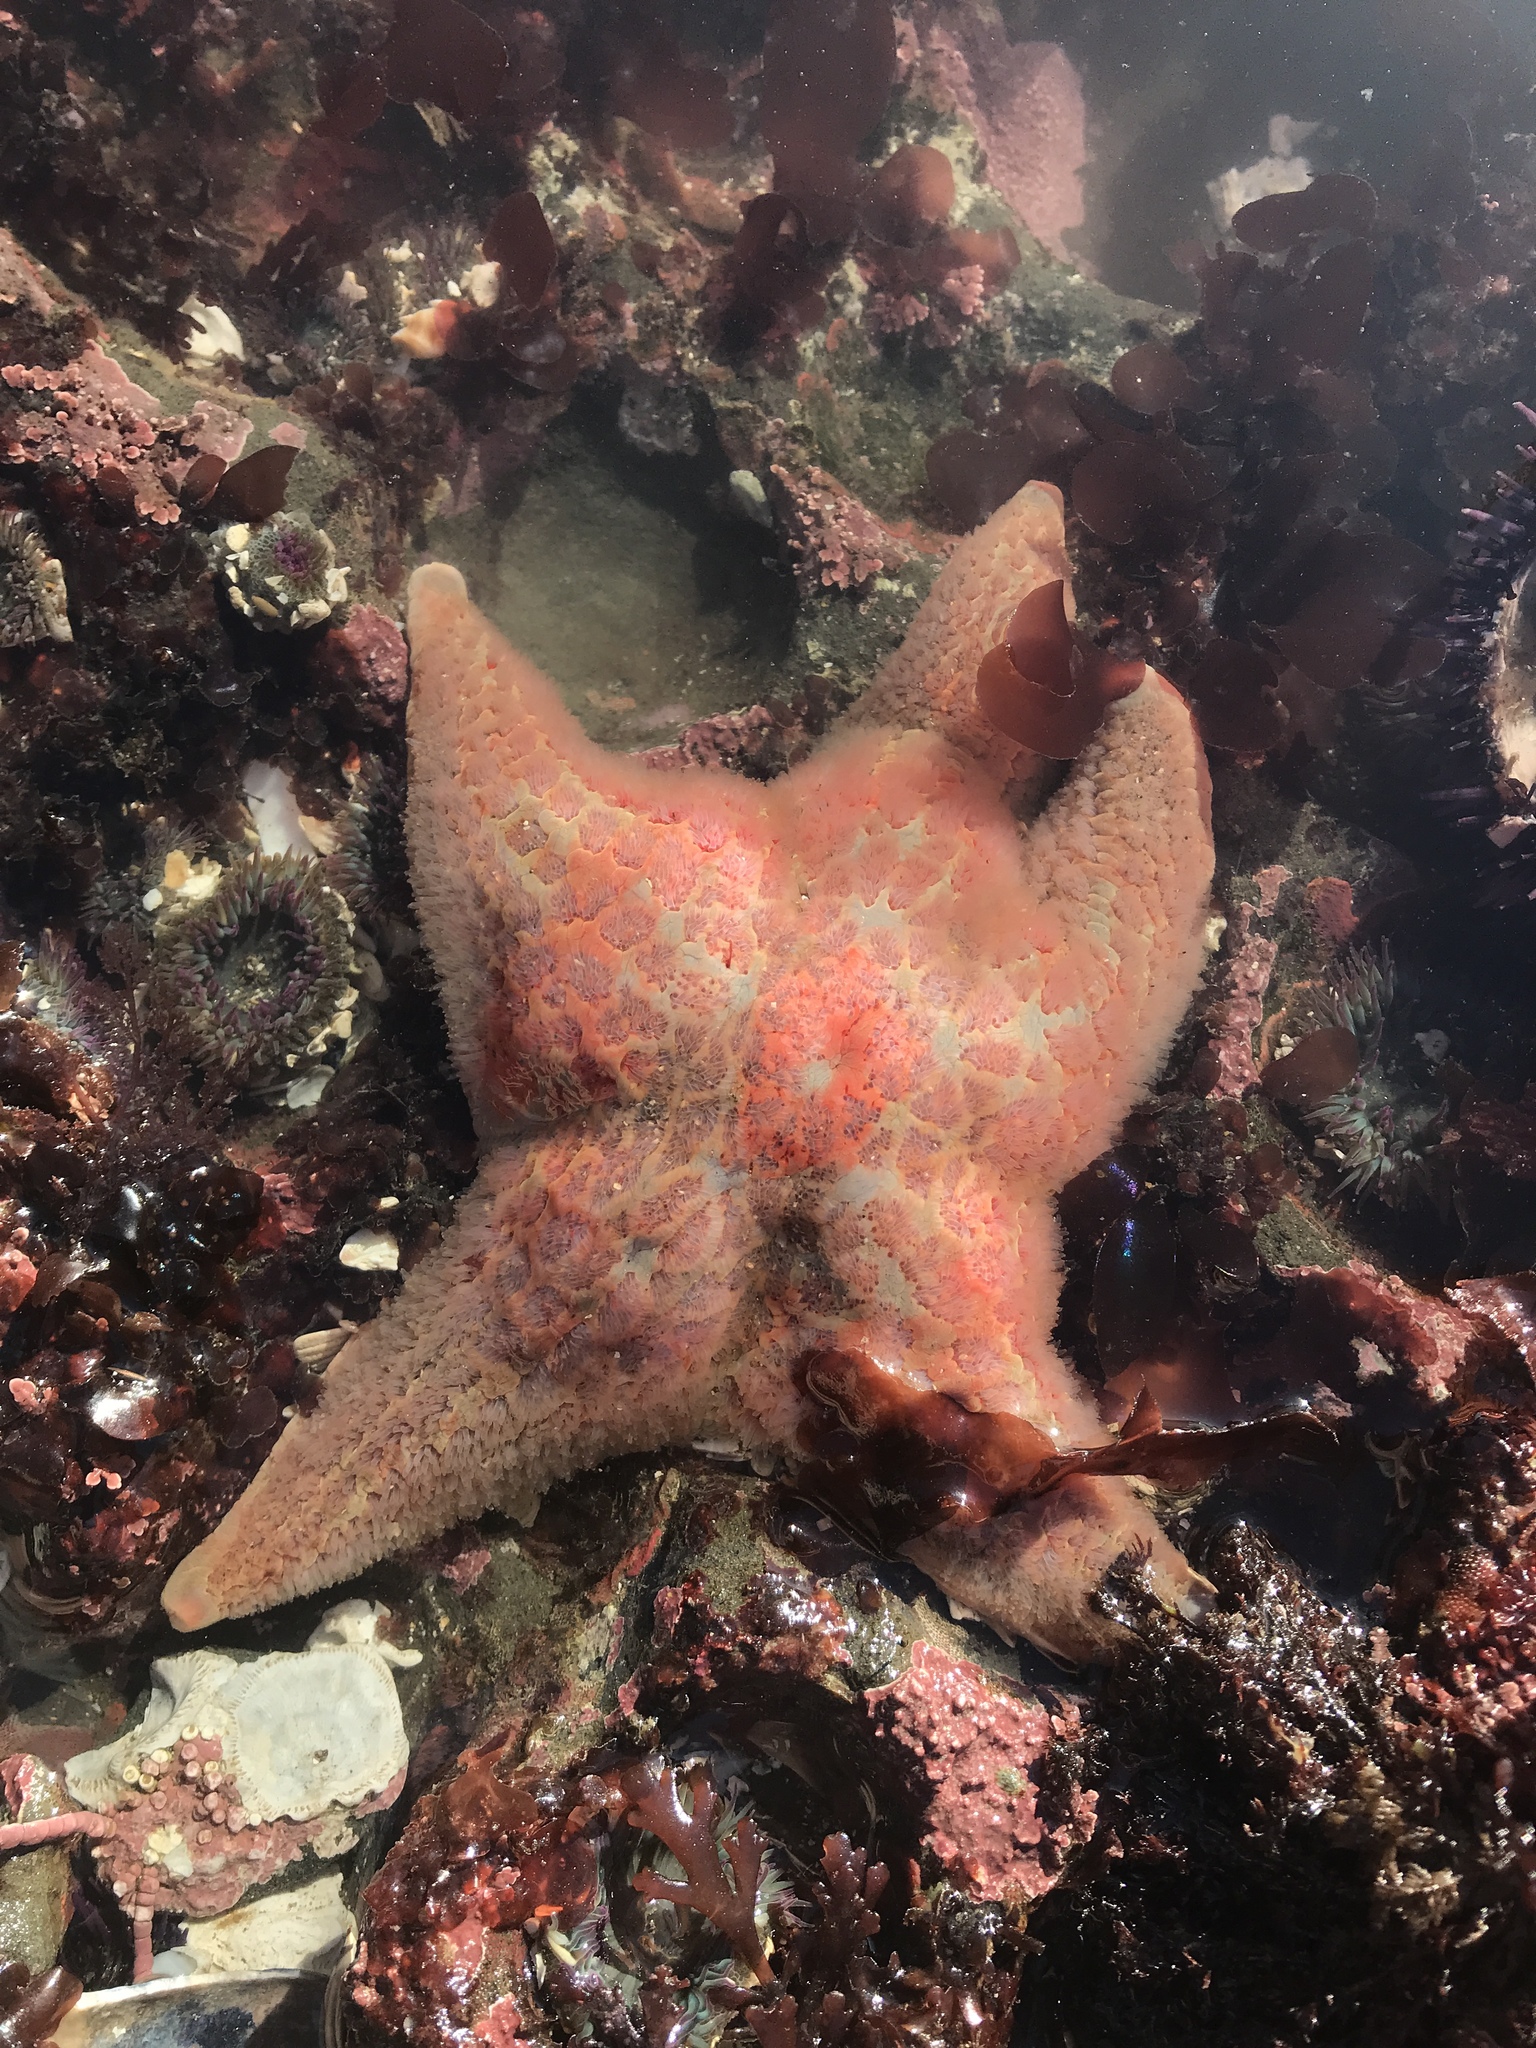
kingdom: Animalia
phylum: Echinodermata
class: Asteroidea
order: Valvatida
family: Asteropseidae
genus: Dermasterias
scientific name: Dermasterias imbricata
